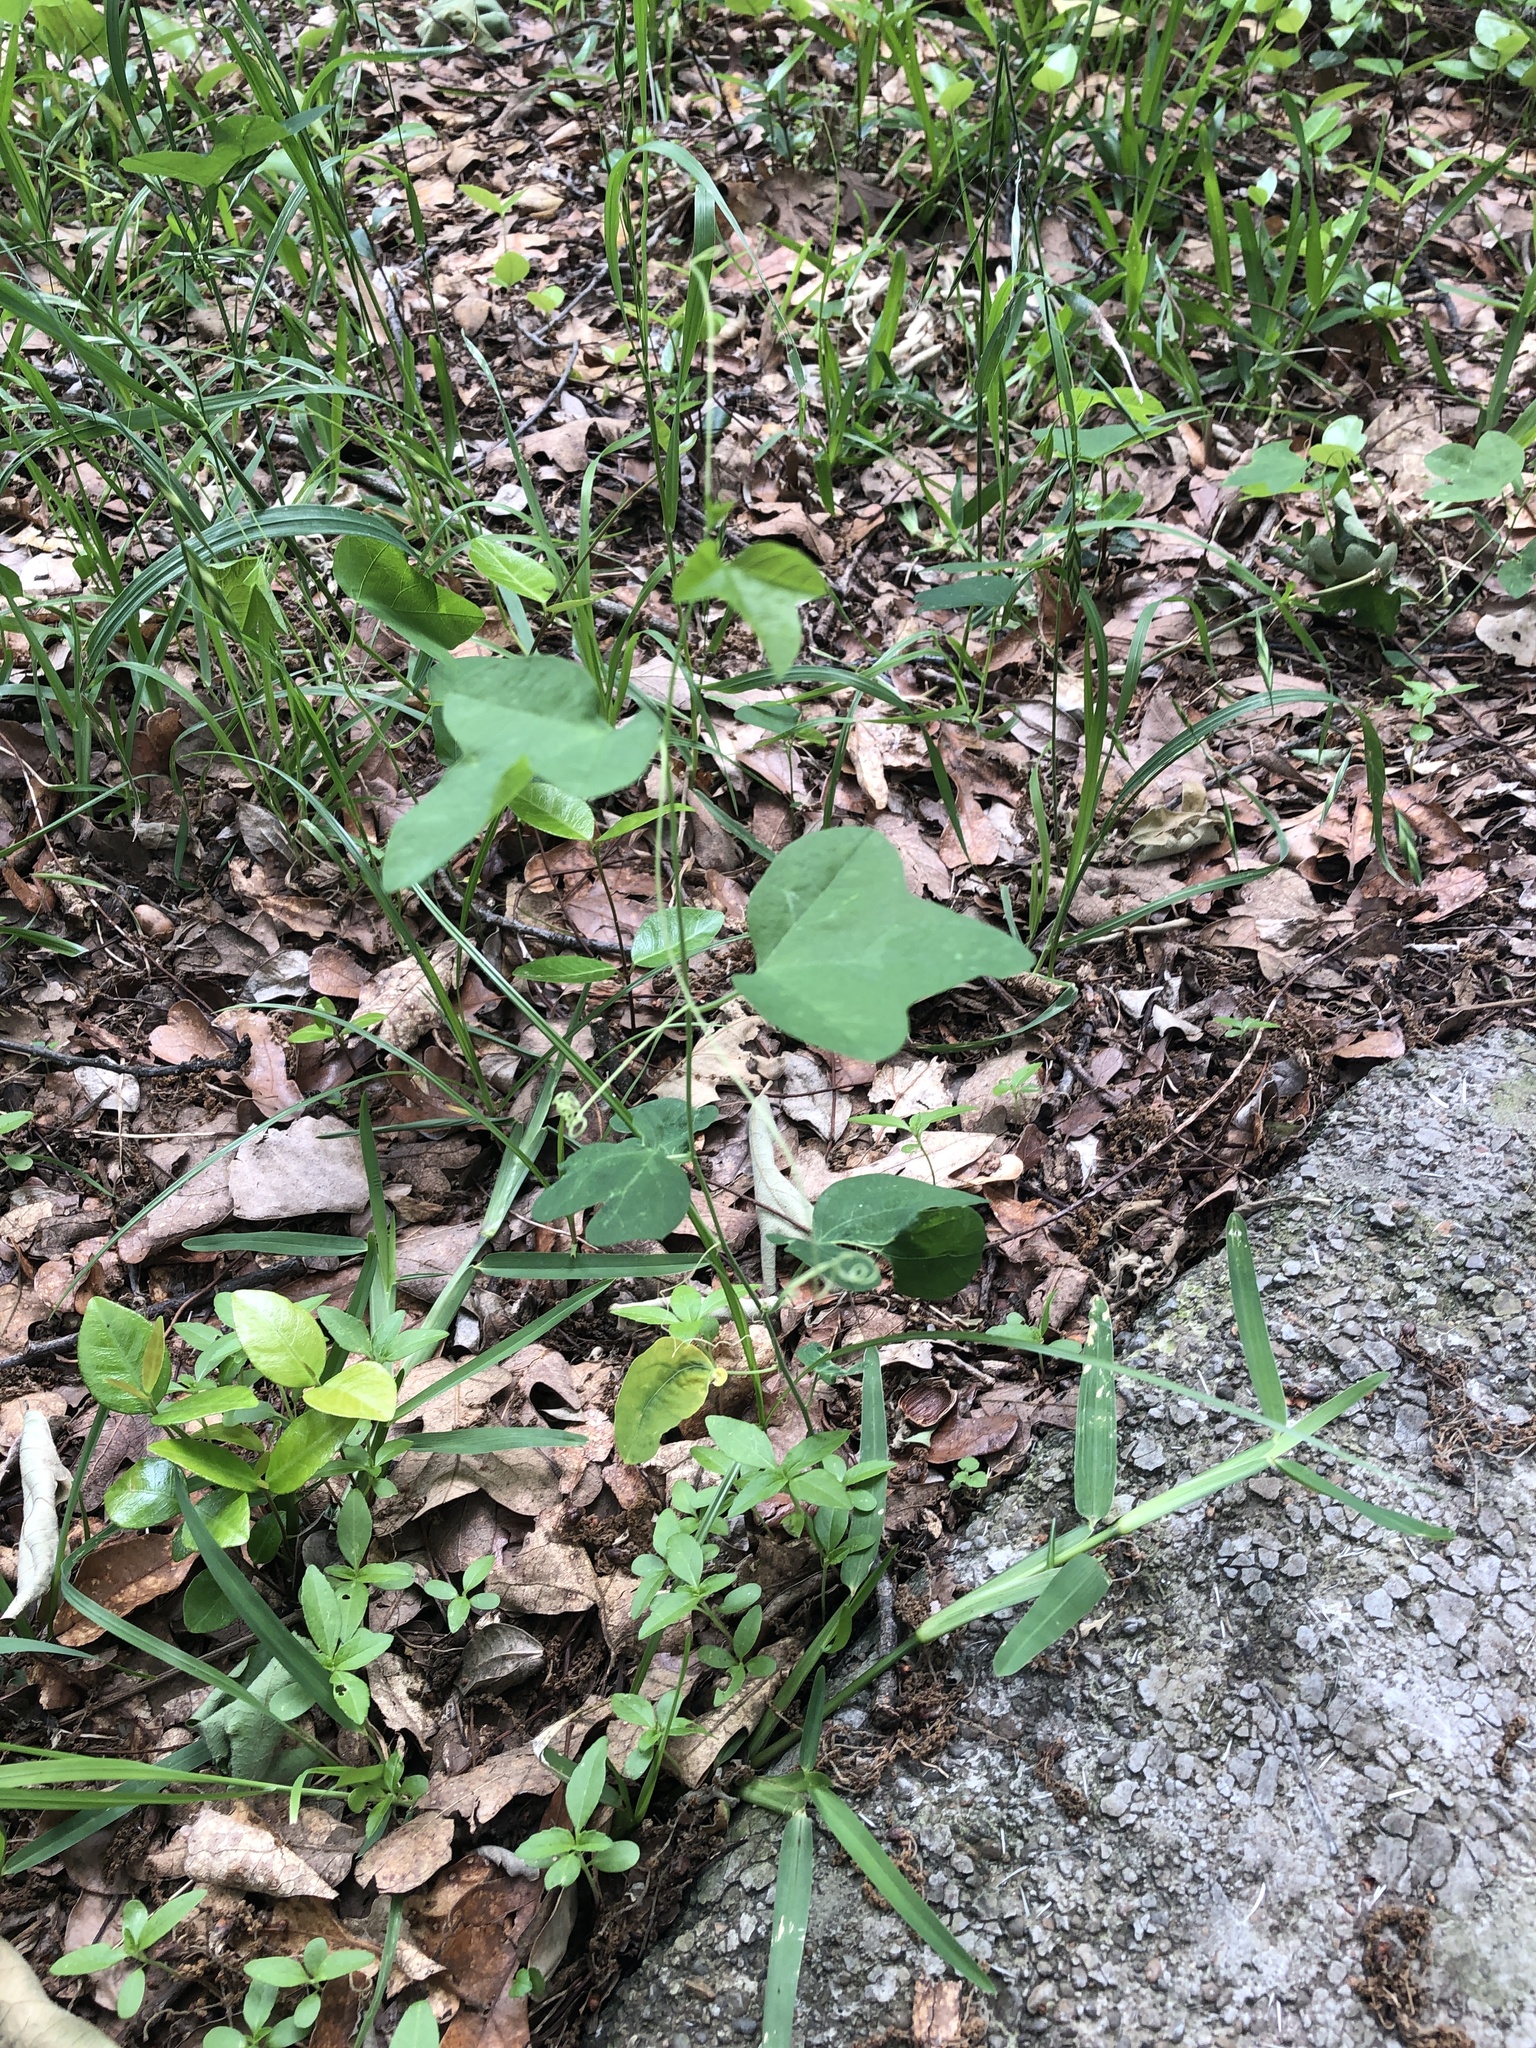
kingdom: Plantae
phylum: Tracheophyta
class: Magnoliopsida
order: Malpighiales
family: Passifloraceae
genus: Passiflora
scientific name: Passiflora lutea
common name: Yellow passionflower
